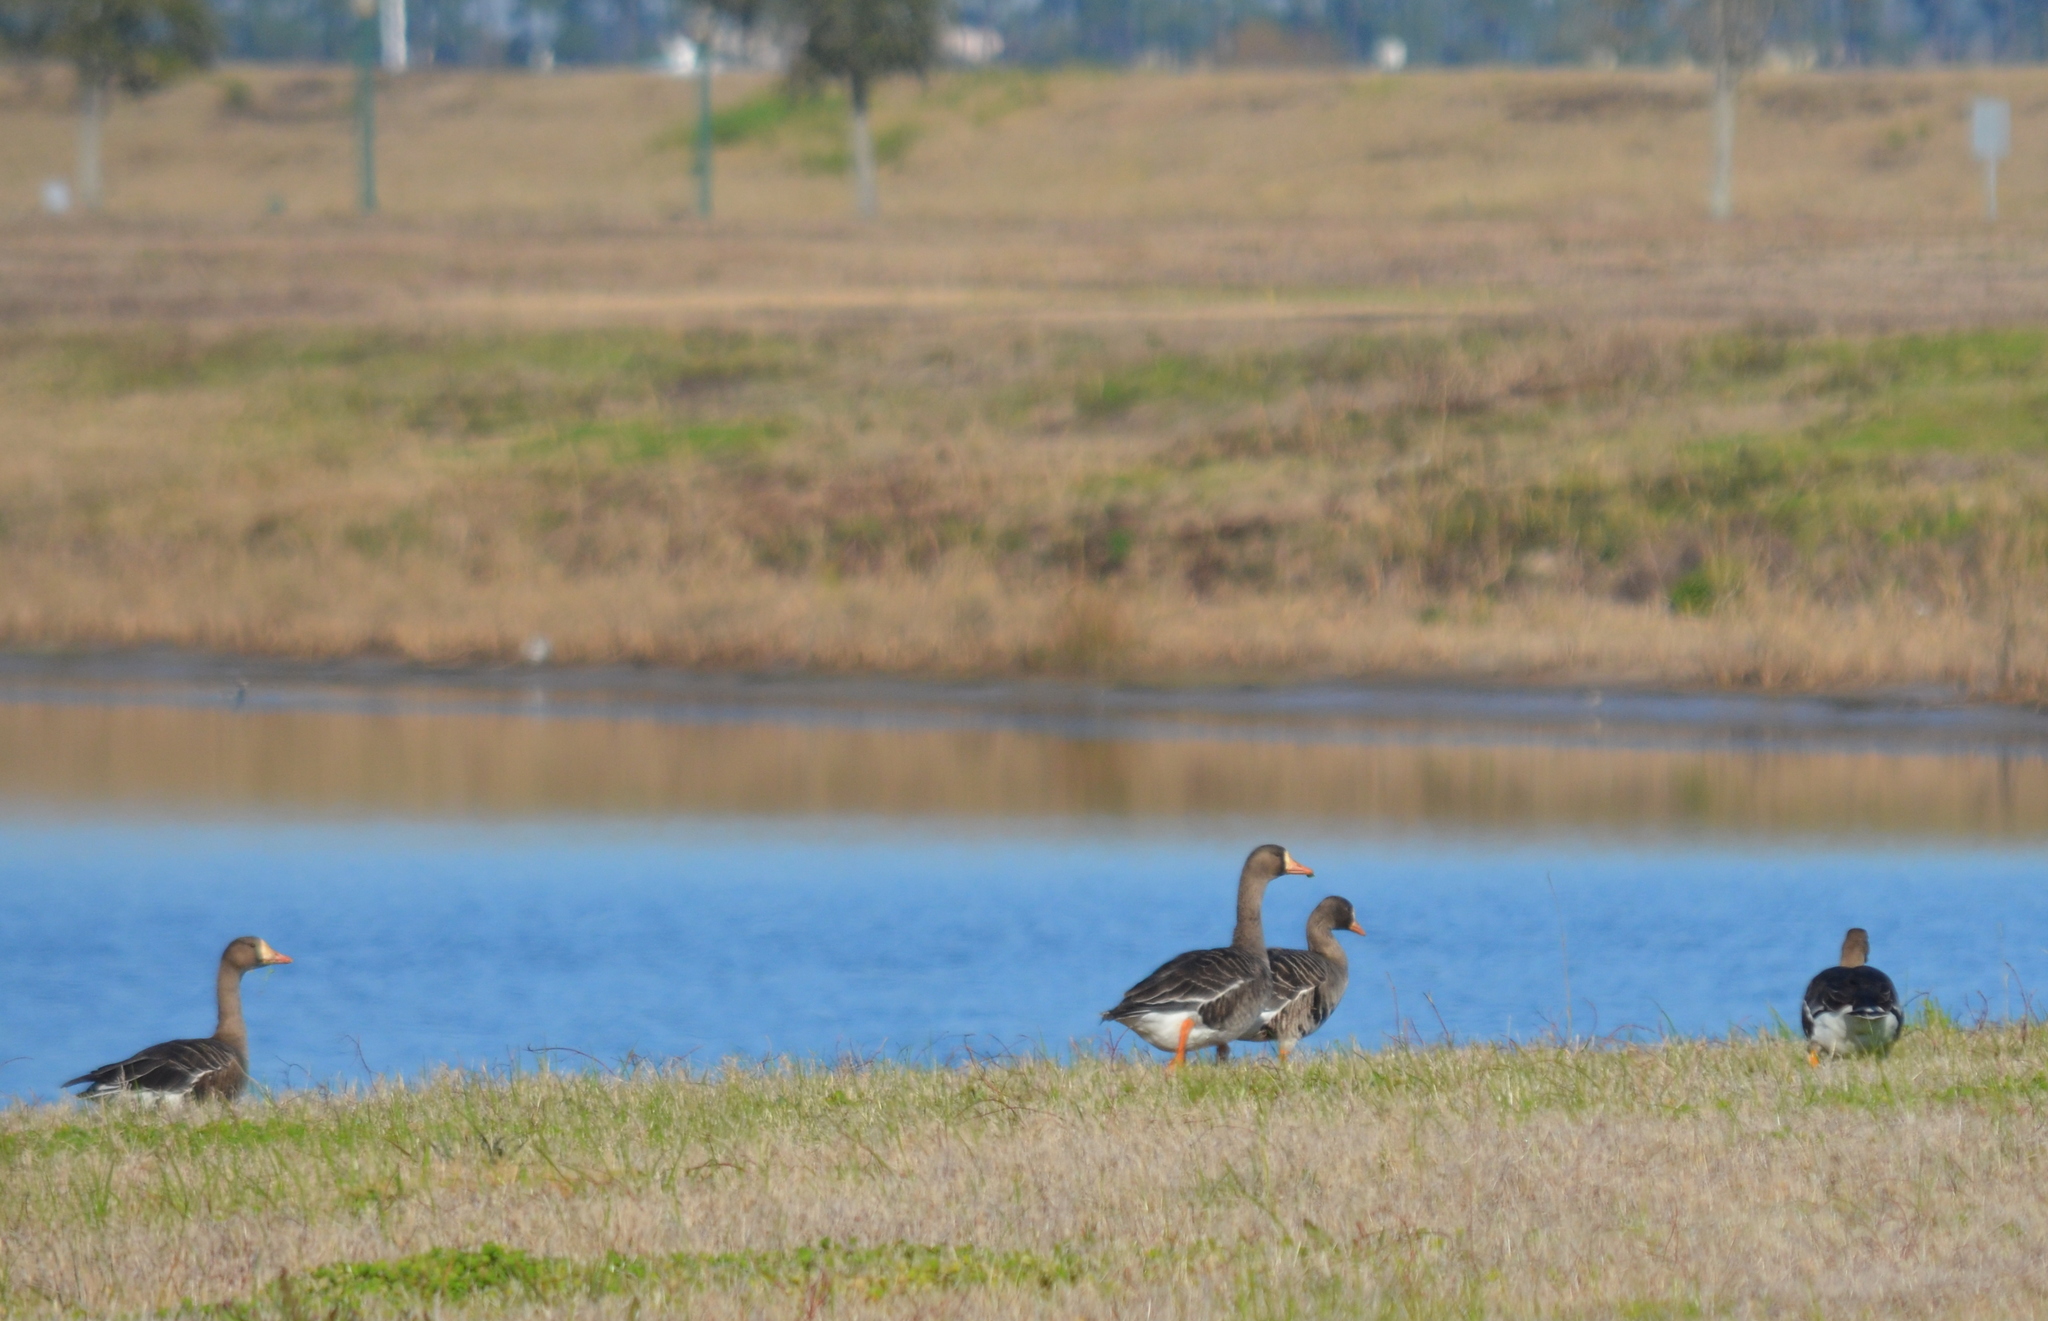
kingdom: Animalia
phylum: Chordata
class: Aves
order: Anseriformes
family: Anatidae
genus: Anser
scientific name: Anser albifrons
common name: Greater white-fronted goose
